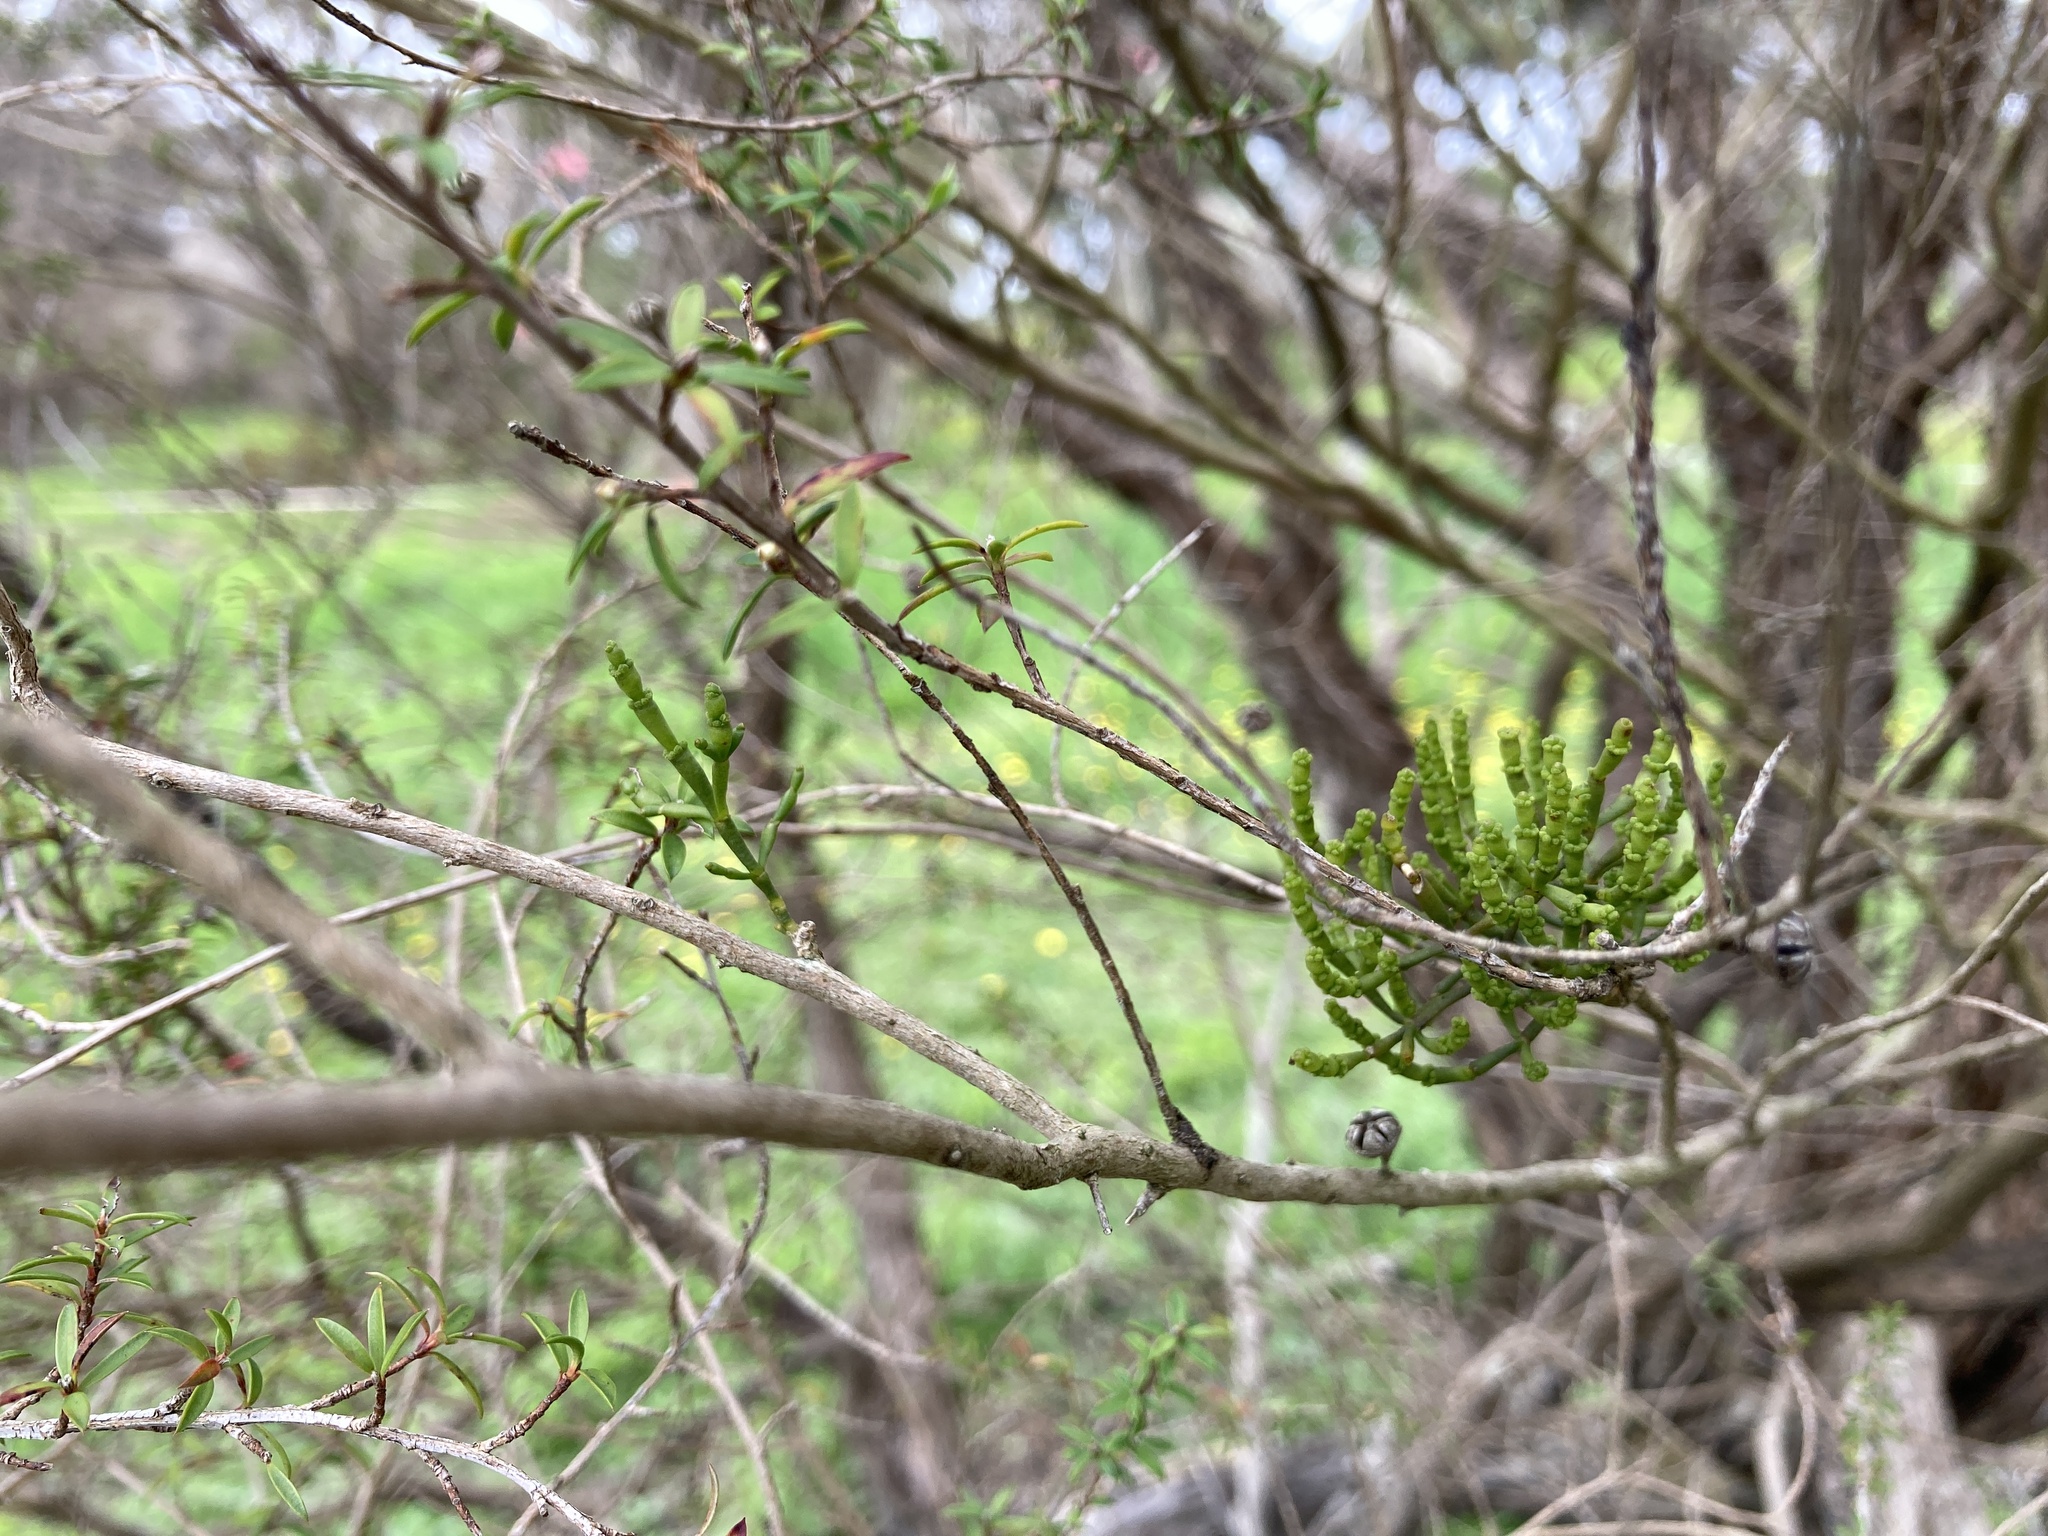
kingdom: Plantae
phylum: Tracheophyta
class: Magnoliopsida
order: Santalales
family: Viscaceae
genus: Korthalsella
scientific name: Korthalsella salicornioides
